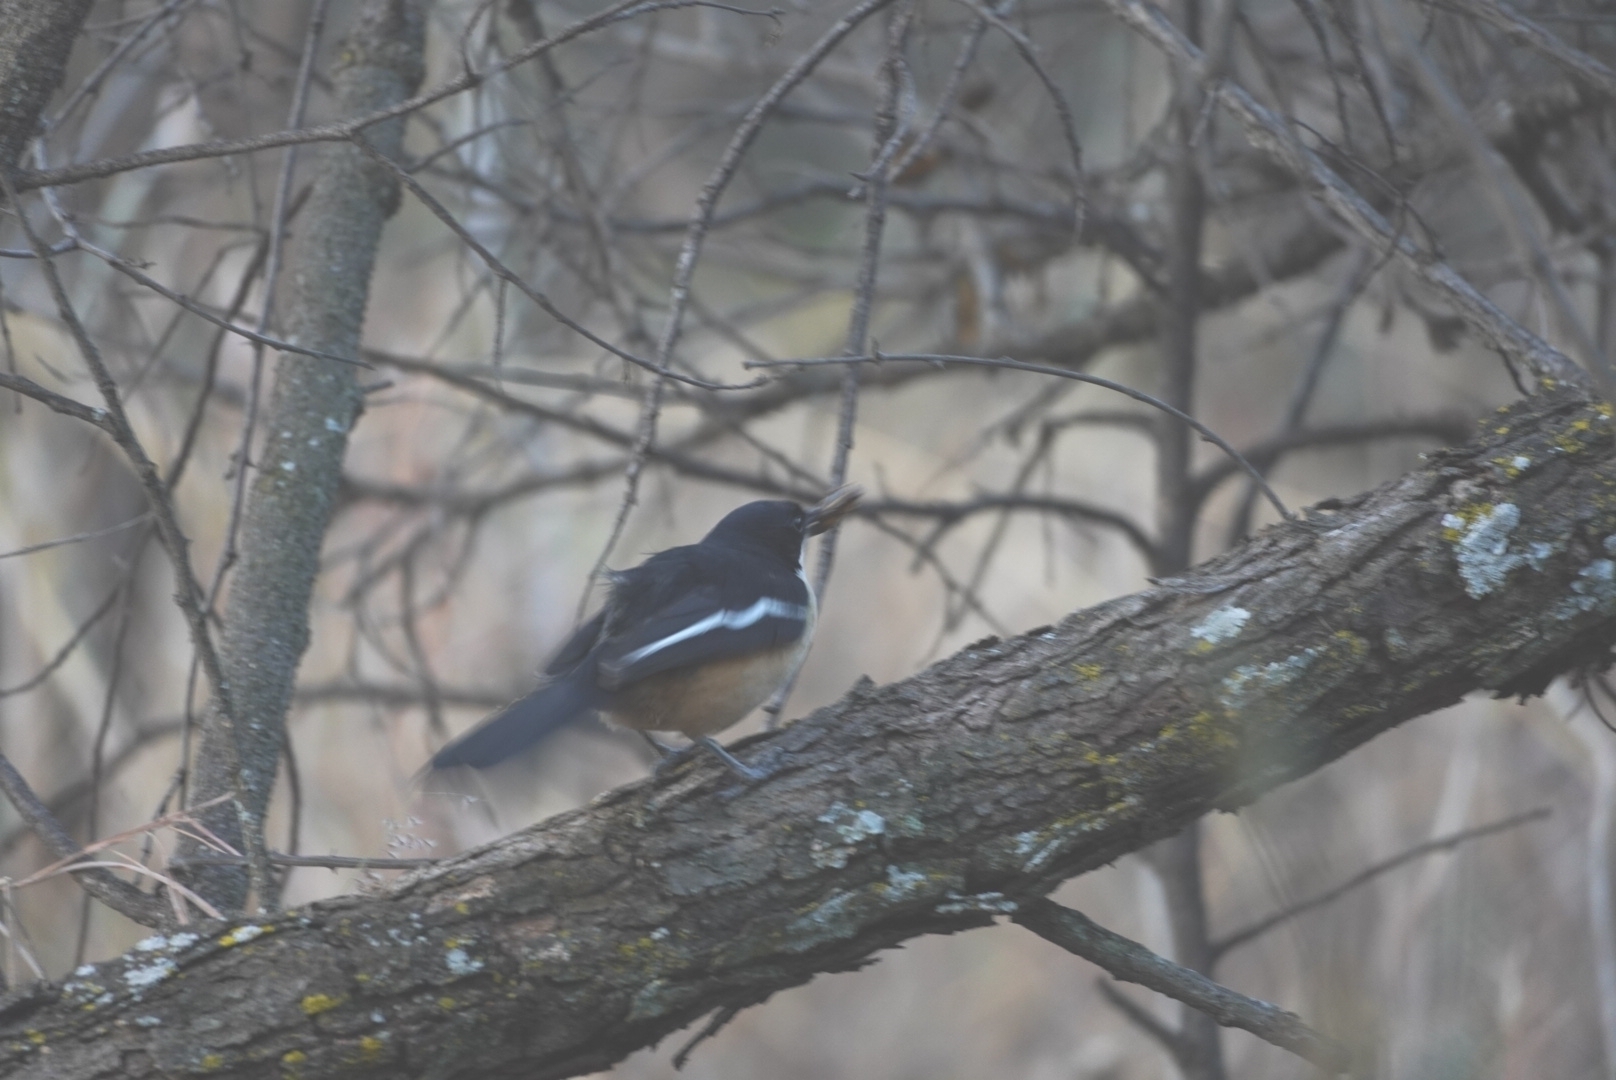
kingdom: Animalia
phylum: Chordata
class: Aves
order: Passeriformes
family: Malaconotidae
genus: Laniarius
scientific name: Laniarius ferrugineus
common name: Southern boubou
